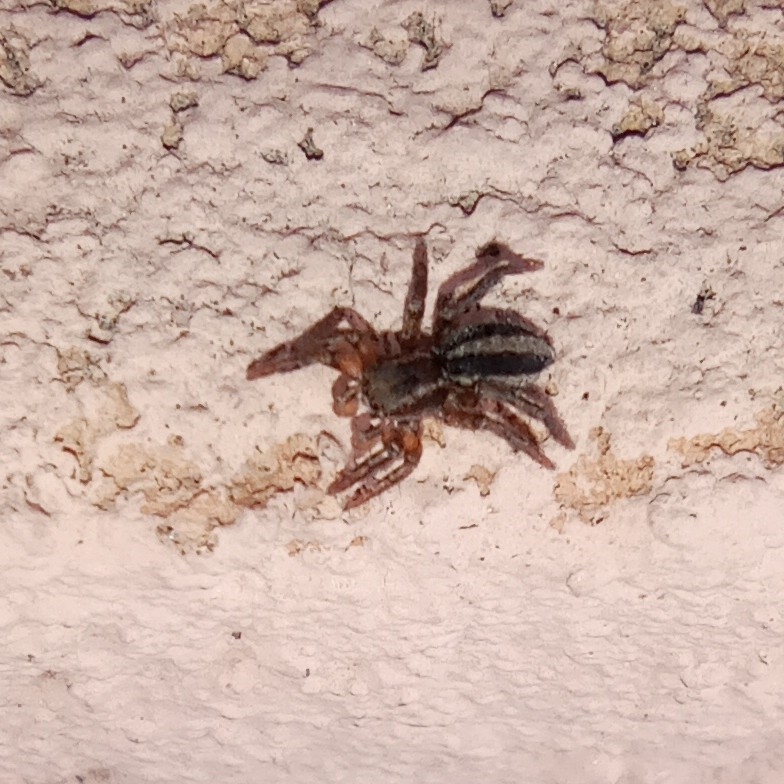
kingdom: Animalia
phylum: Arthropoda
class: Arachnida
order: Araneae
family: Salticidae
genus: Phlegra
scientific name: Phlegra fasciata
